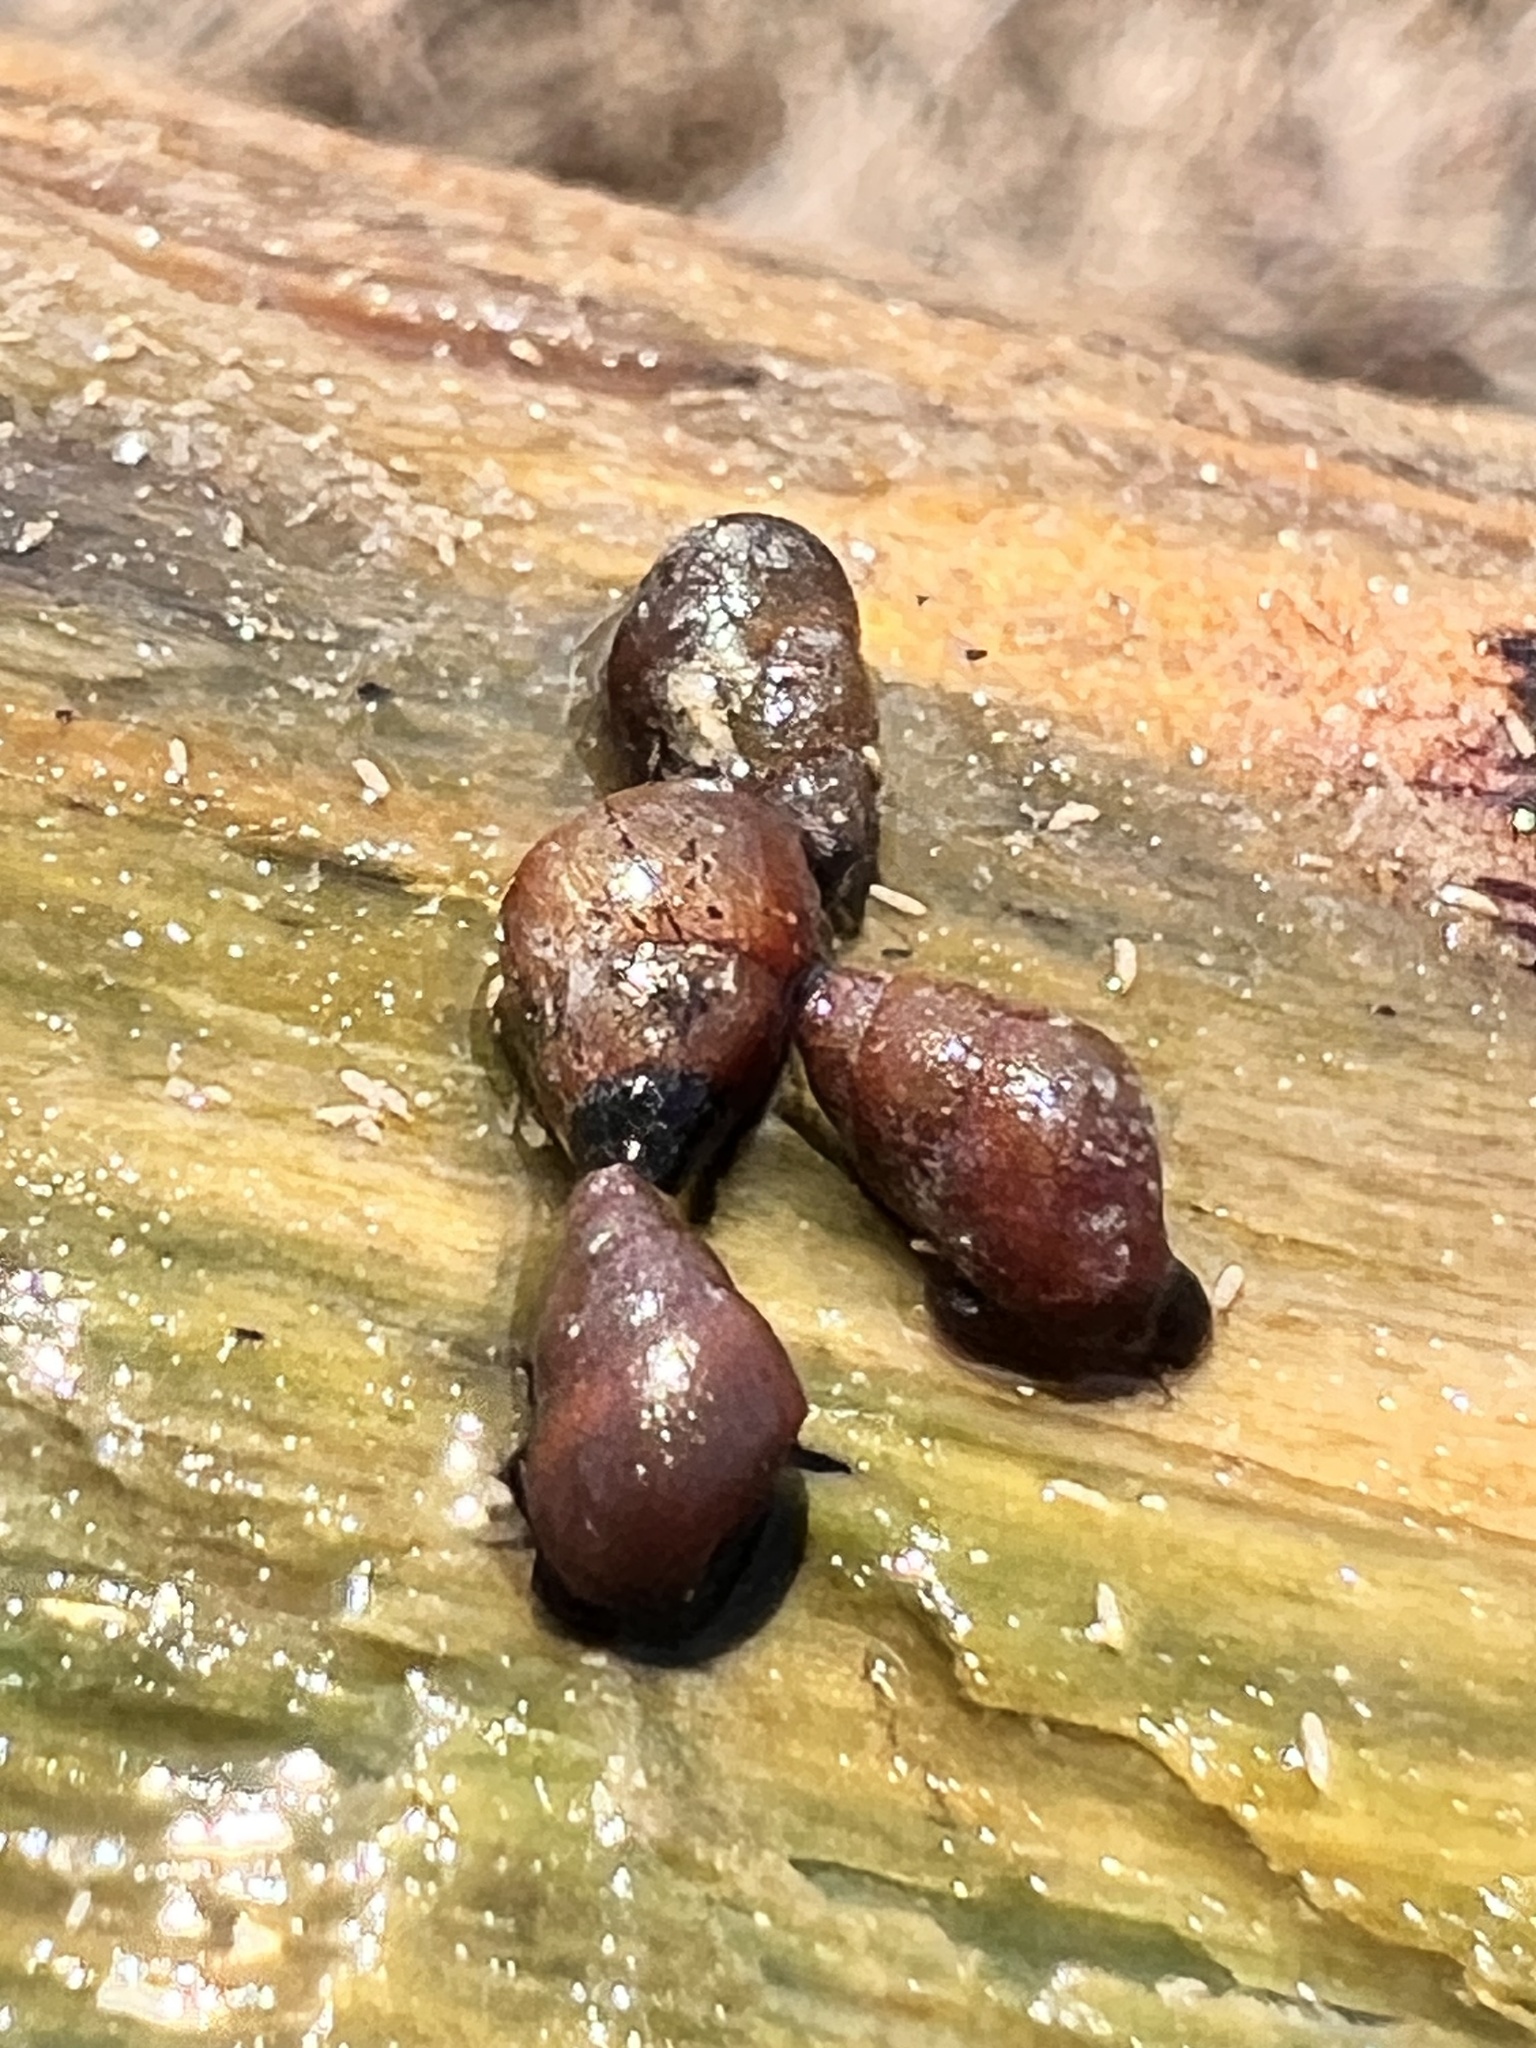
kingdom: Animalia
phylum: Mollusca
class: Gastropoda
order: Littorinimorpha
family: Tateidae
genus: Potamopyrgus
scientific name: Potamopyrgus estuarinus
